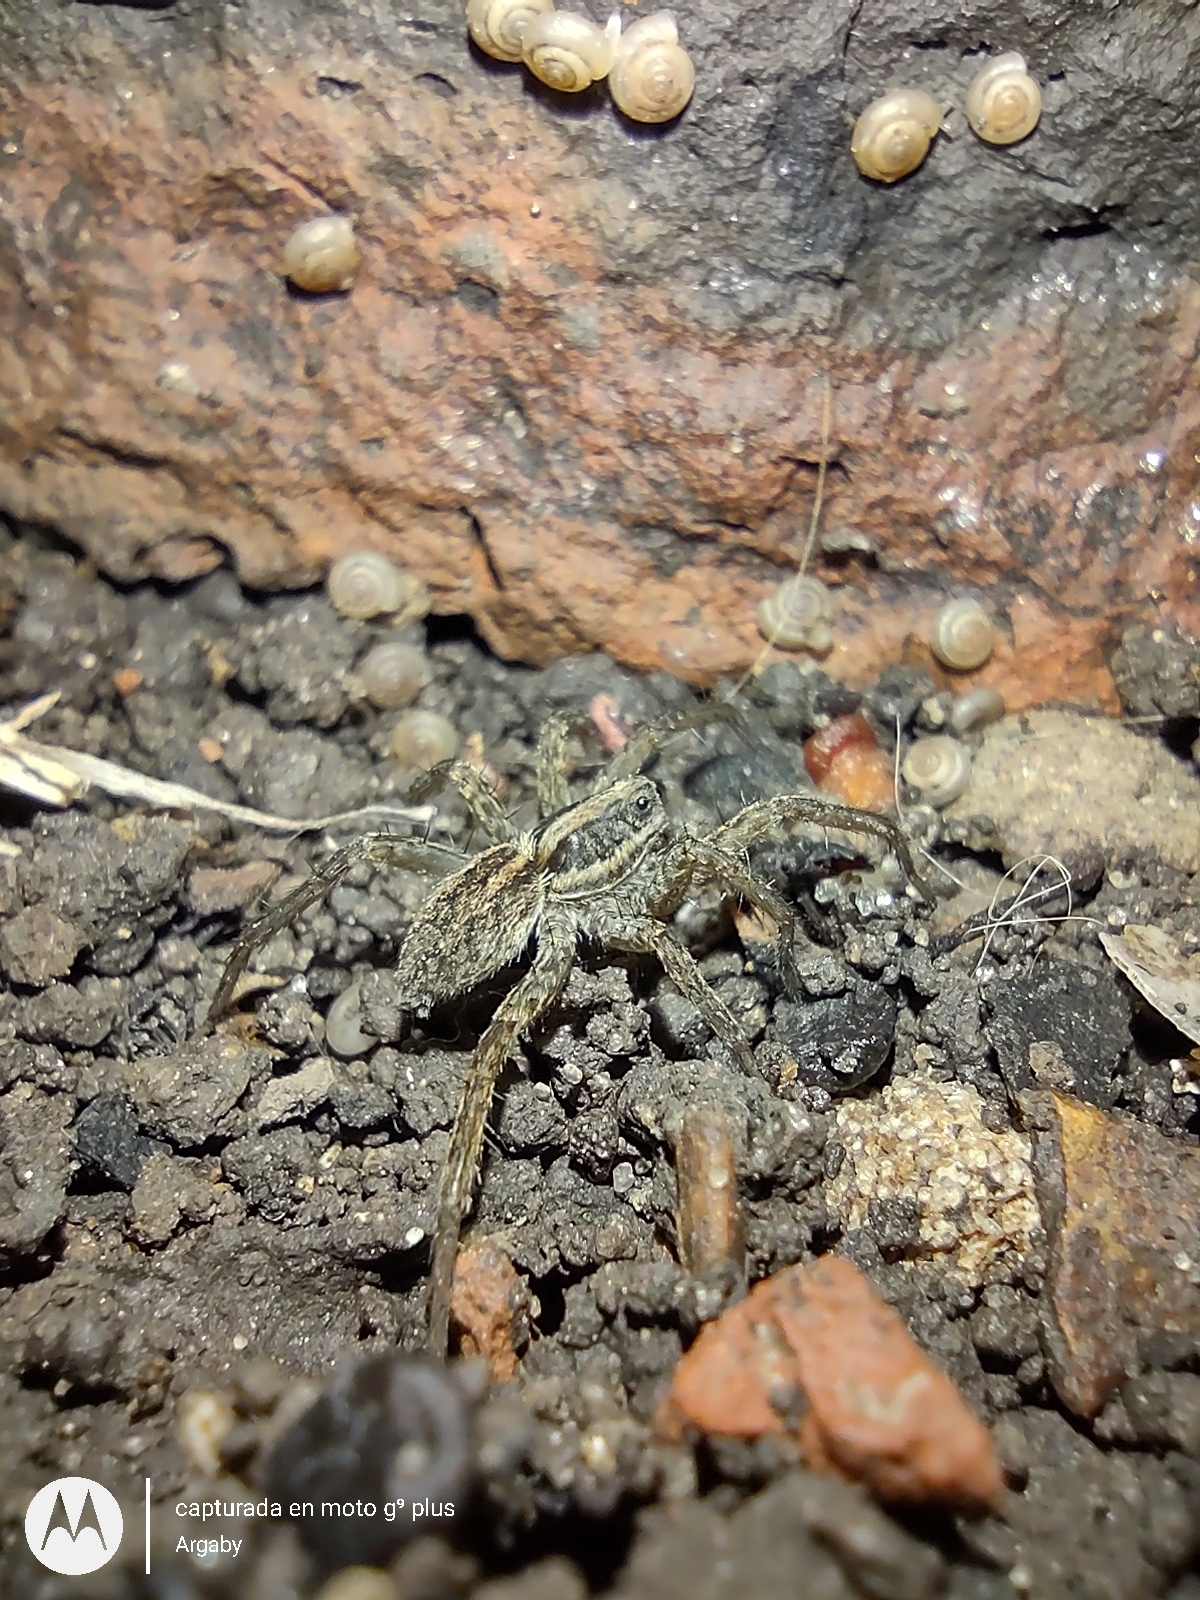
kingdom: Animalia
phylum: Arthropoda
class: Arachnida
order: Araneae
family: Lycosidae
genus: Alopecosa
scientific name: Alopecosa moesta
